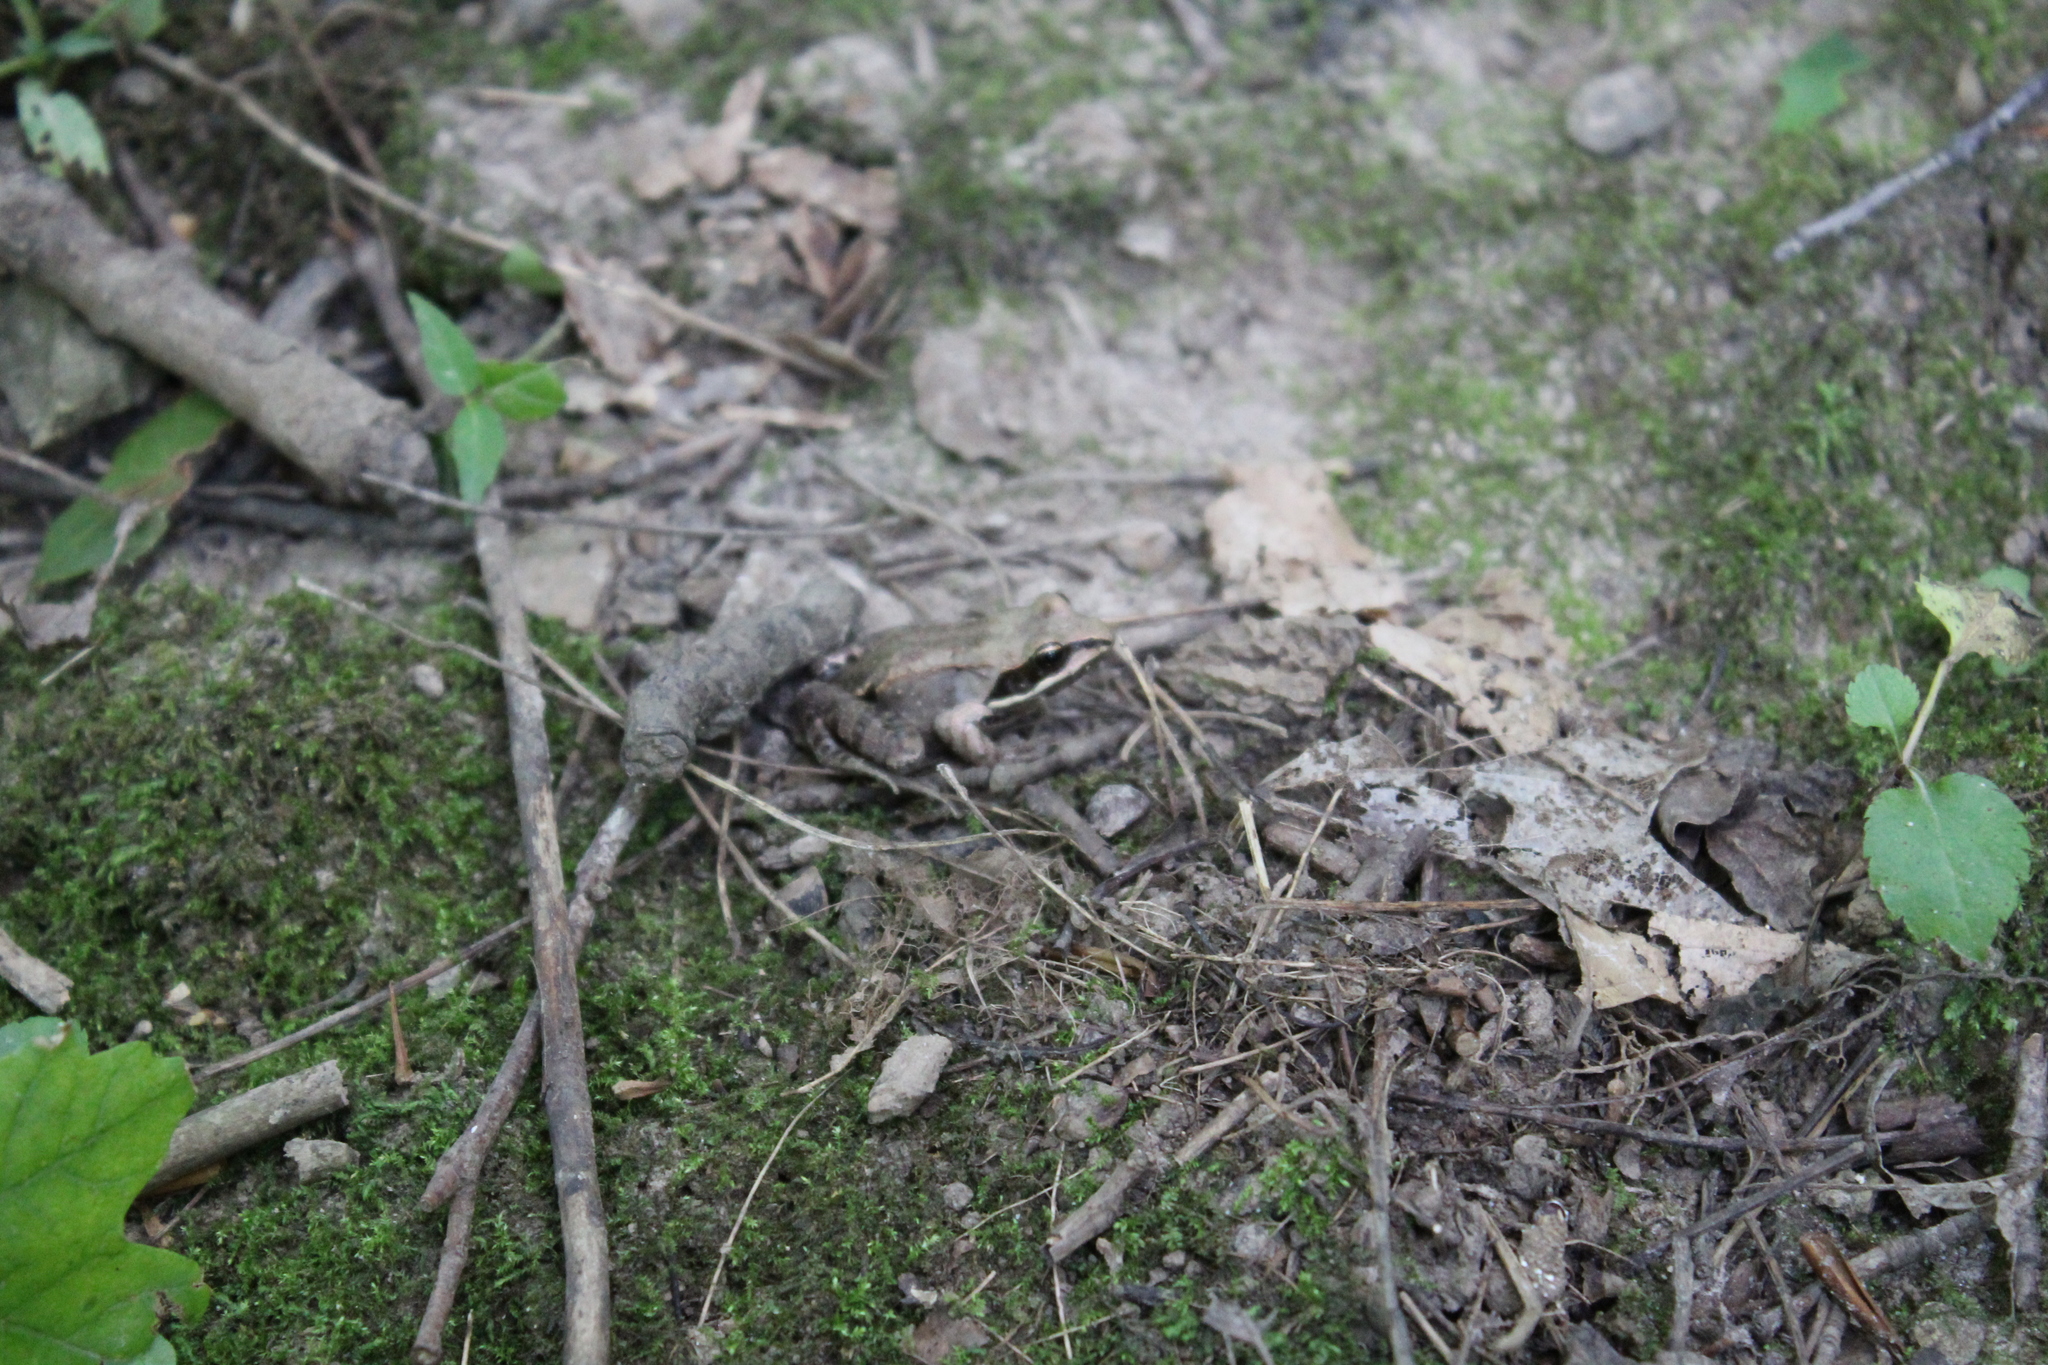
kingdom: Animalia
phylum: Chordata
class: Amphibia
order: Anura
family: Ranidae
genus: Lithobates
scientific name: Lithobates sylvaticus
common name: Wood frog
